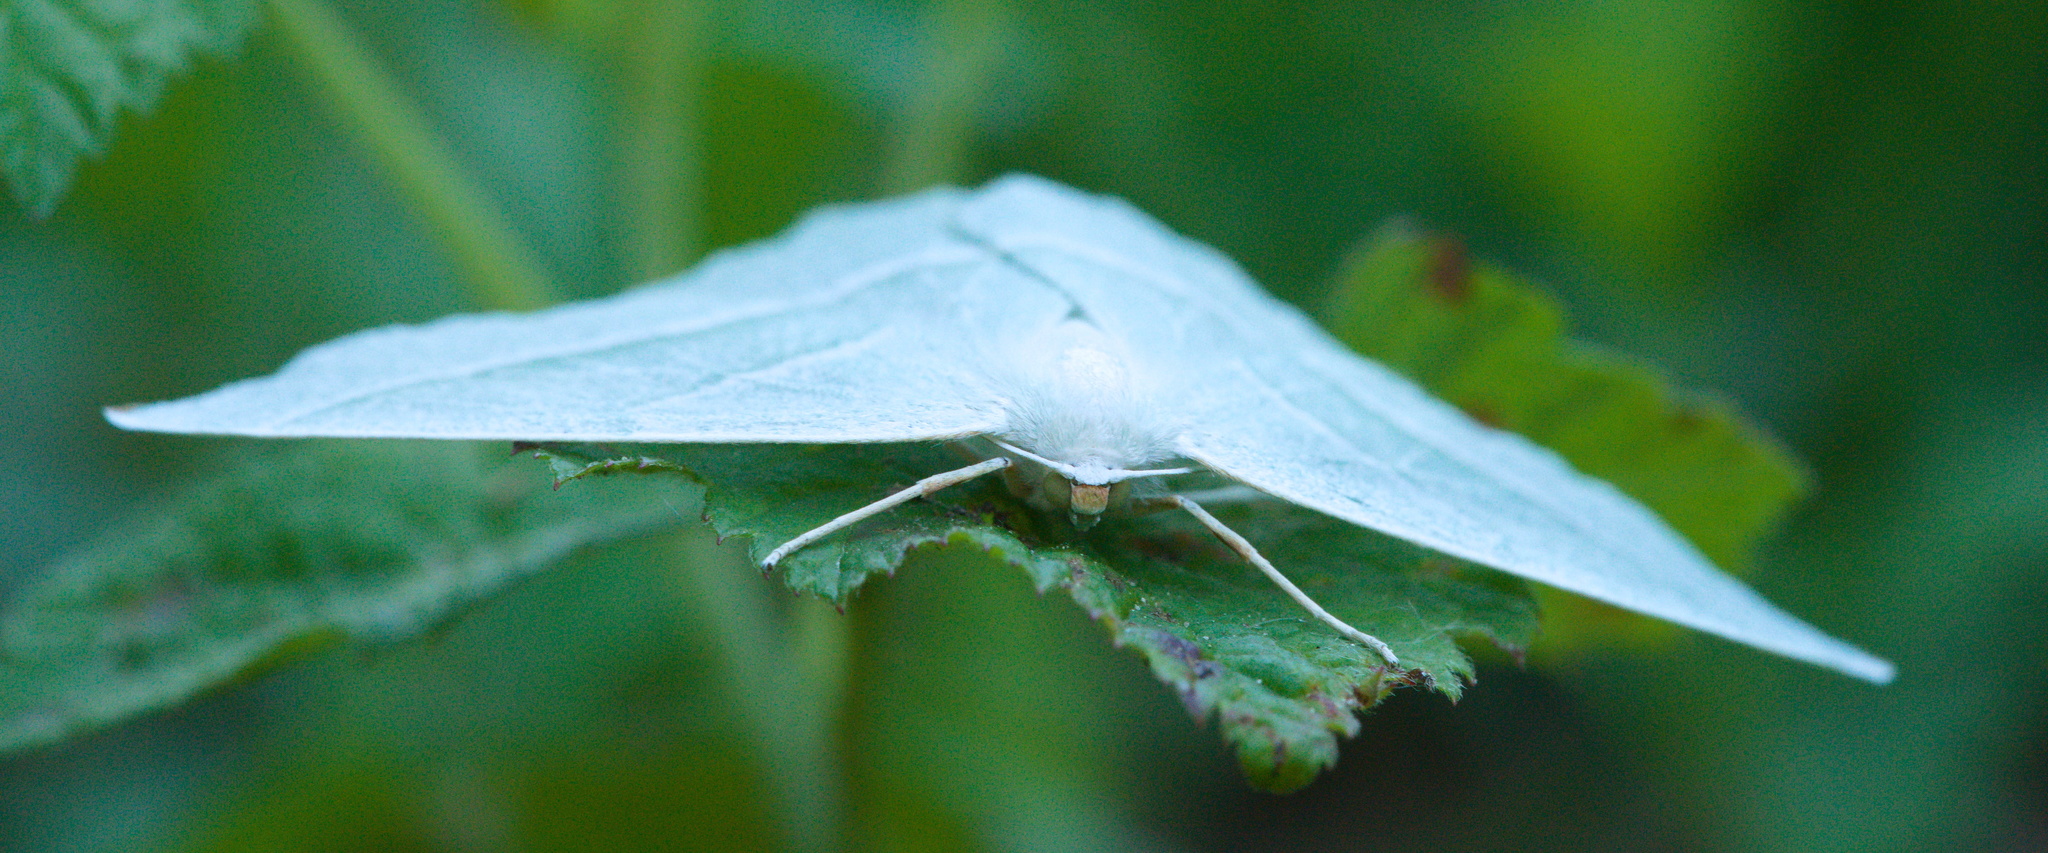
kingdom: Animalia
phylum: Arthropoda
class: Insecta
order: Lepidoptera
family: Geometridae
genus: Campaea
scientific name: Campaea margaritaria
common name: Light emerald
